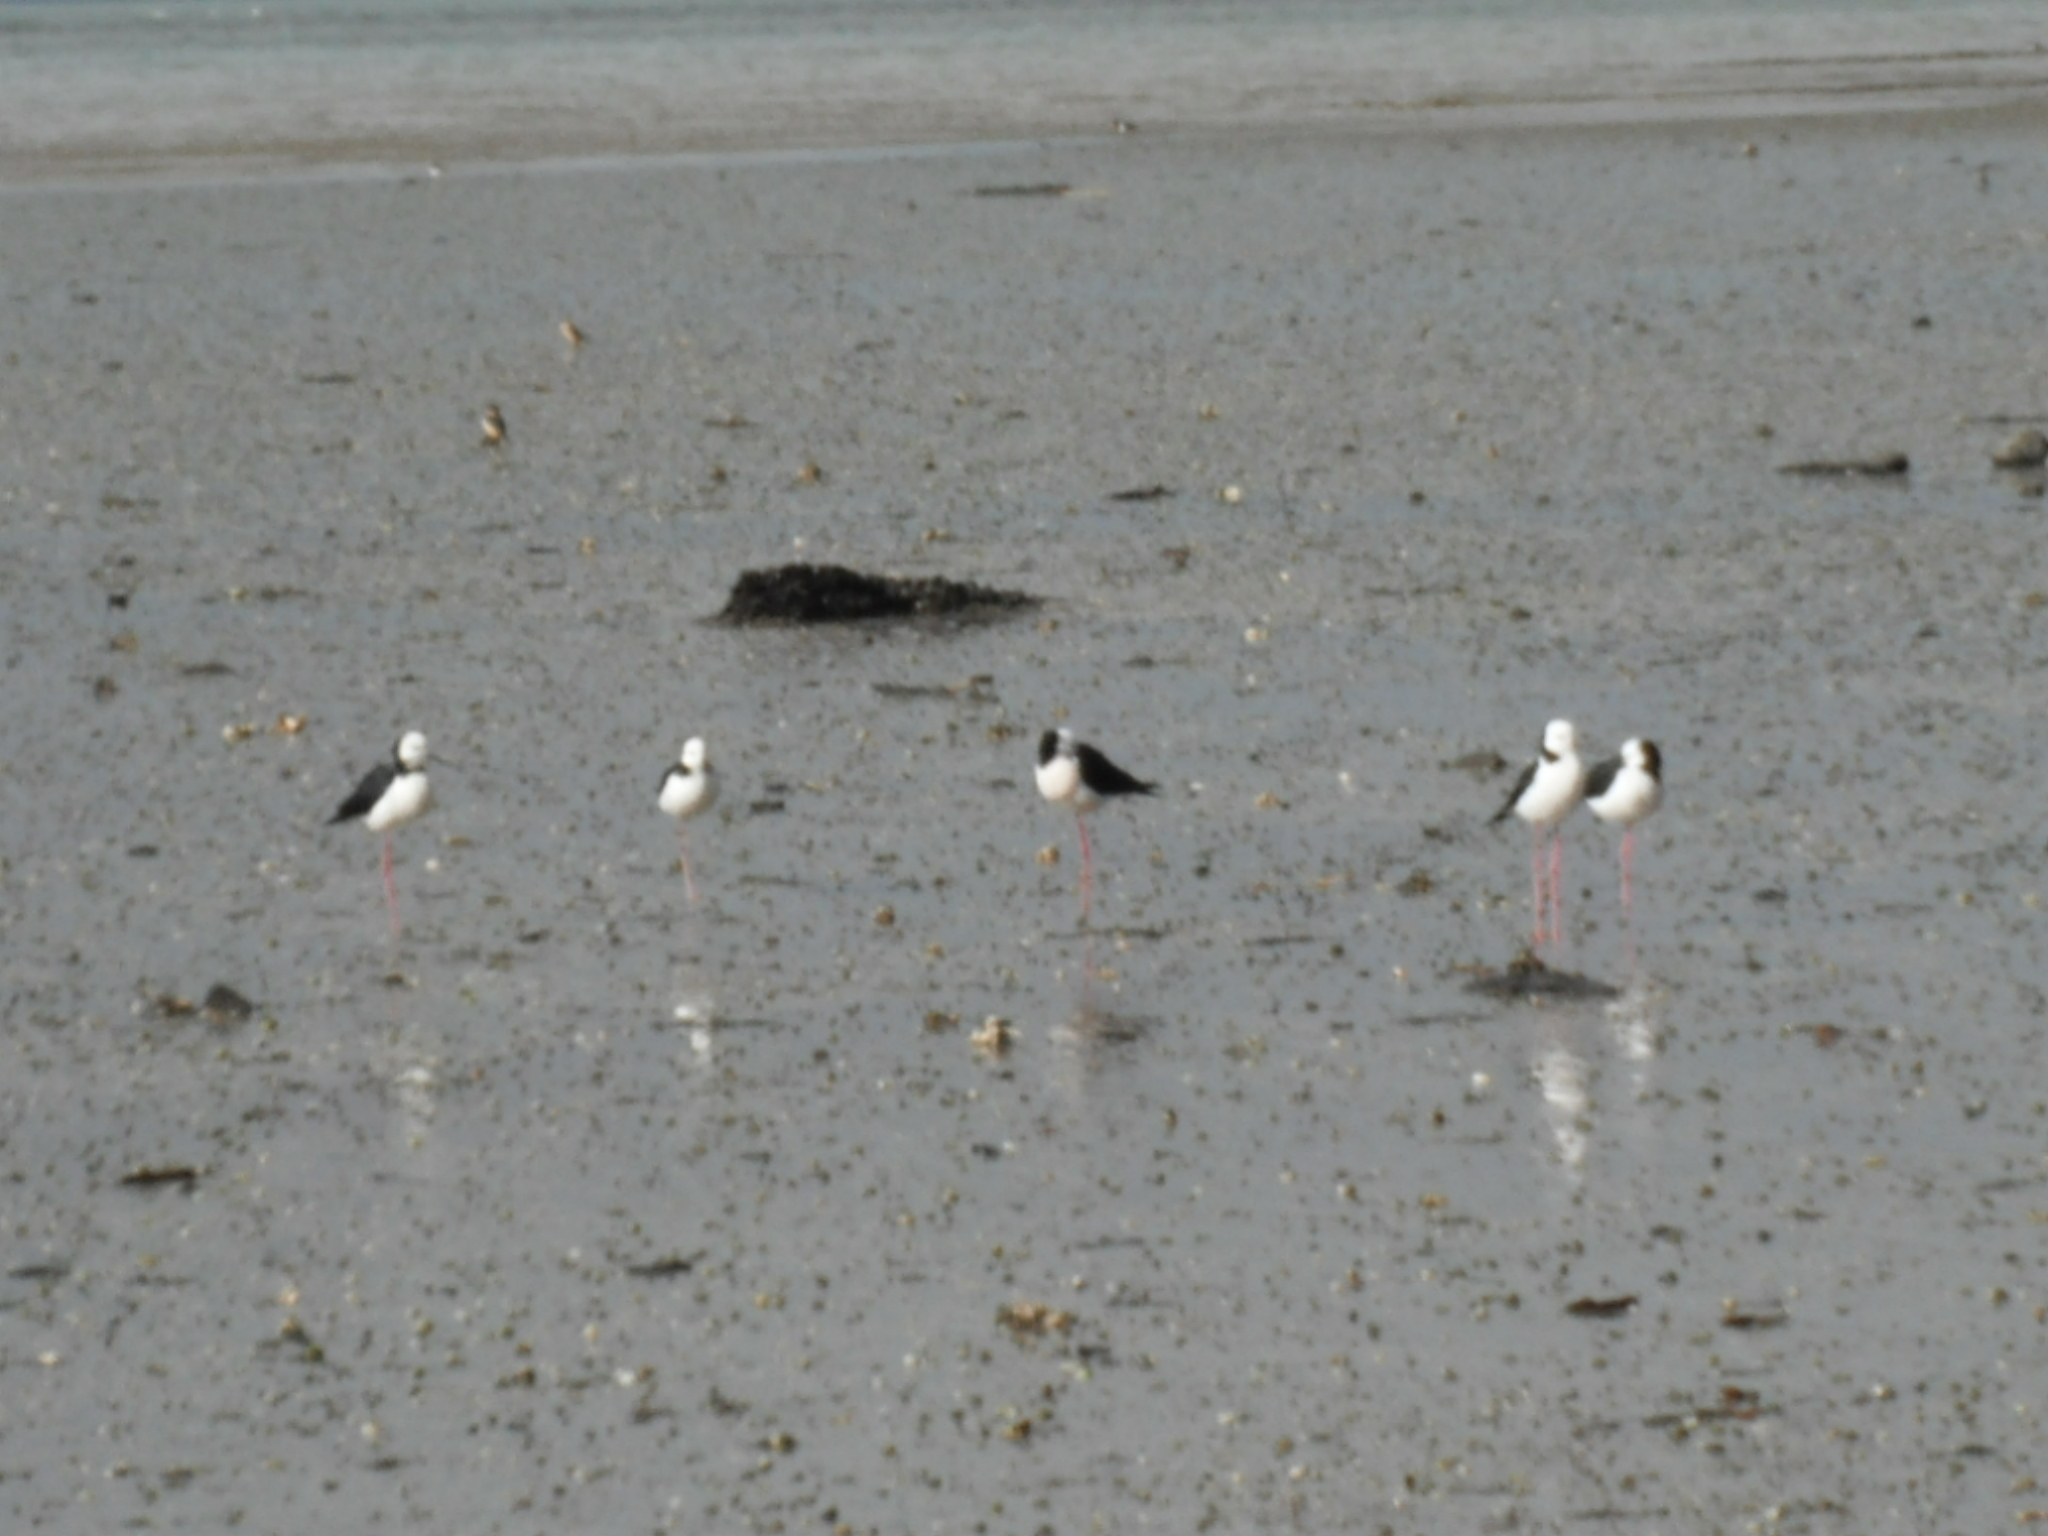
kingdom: Animalia
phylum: Chordata
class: Aves
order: Charadriiformes
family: Recurvirostridae
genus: Himantopus
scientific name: Himantopus leucocephalus
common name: White-headed stilt
